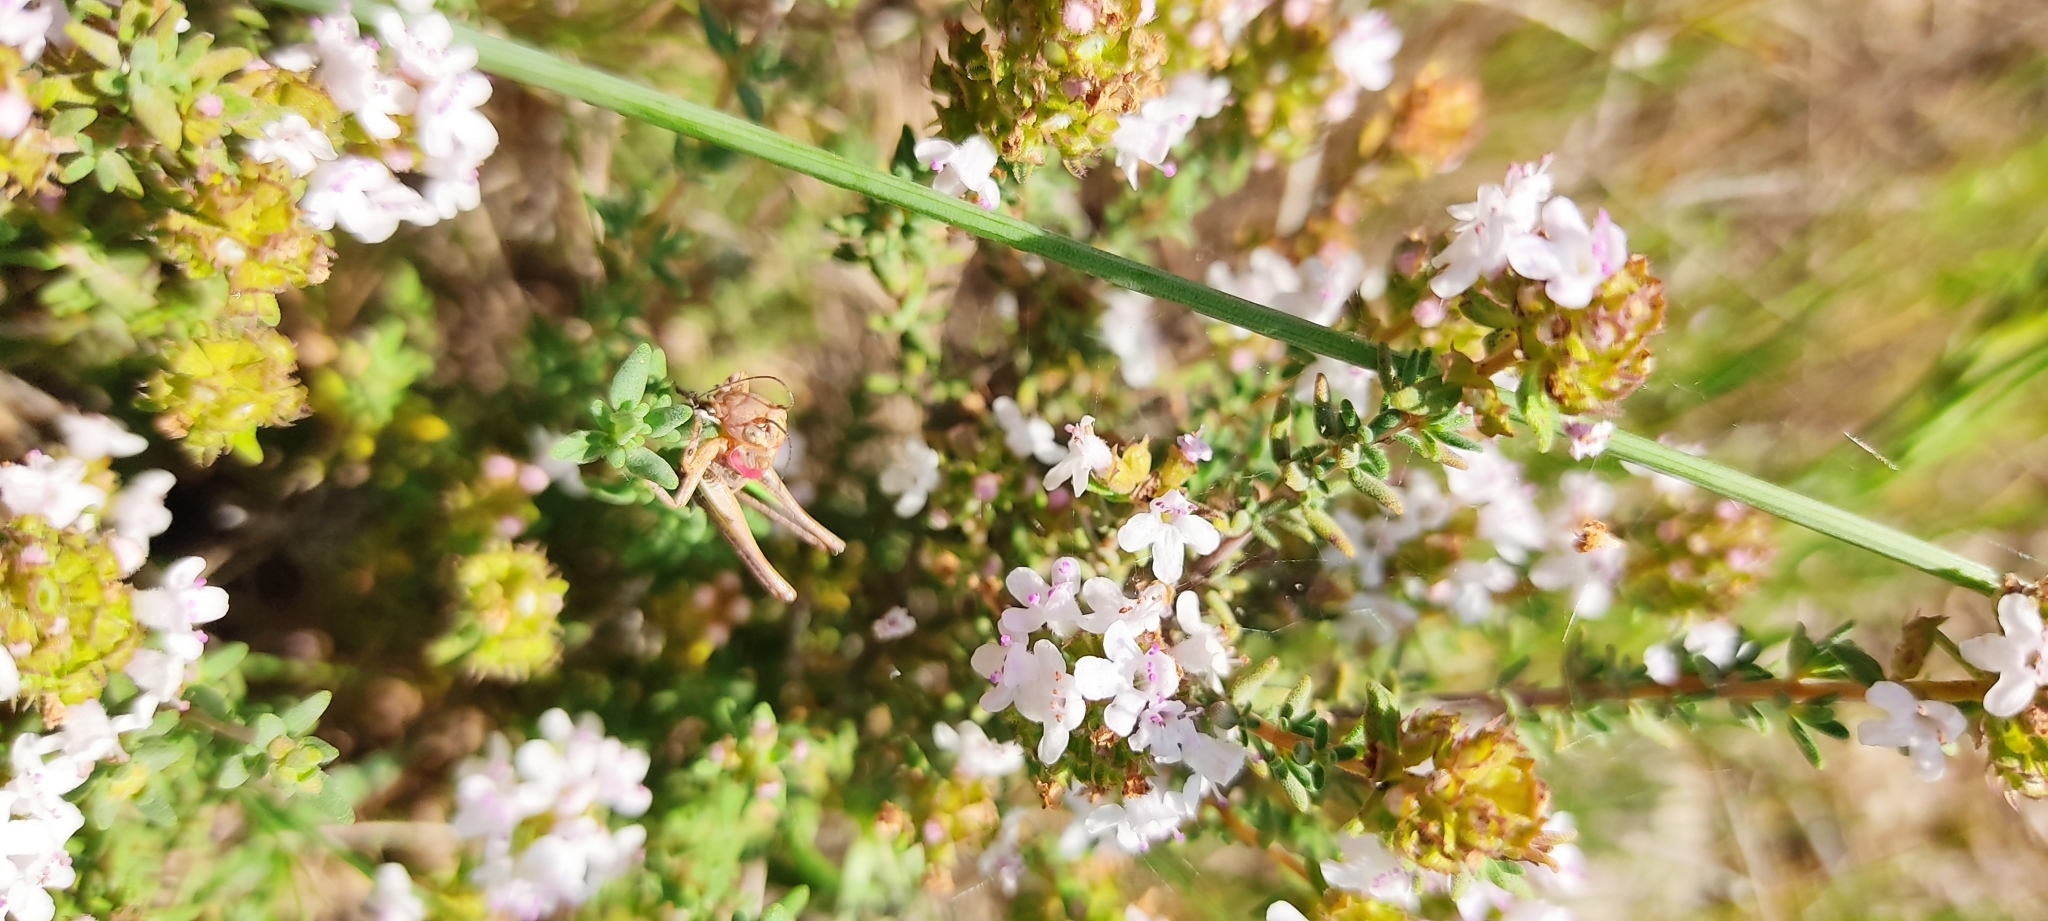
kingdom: Animalia
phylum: Arthropoda
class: Insecta
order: Orthoptera
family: Tettigoniidae
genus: Decticus
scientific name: Decticus albifrons
